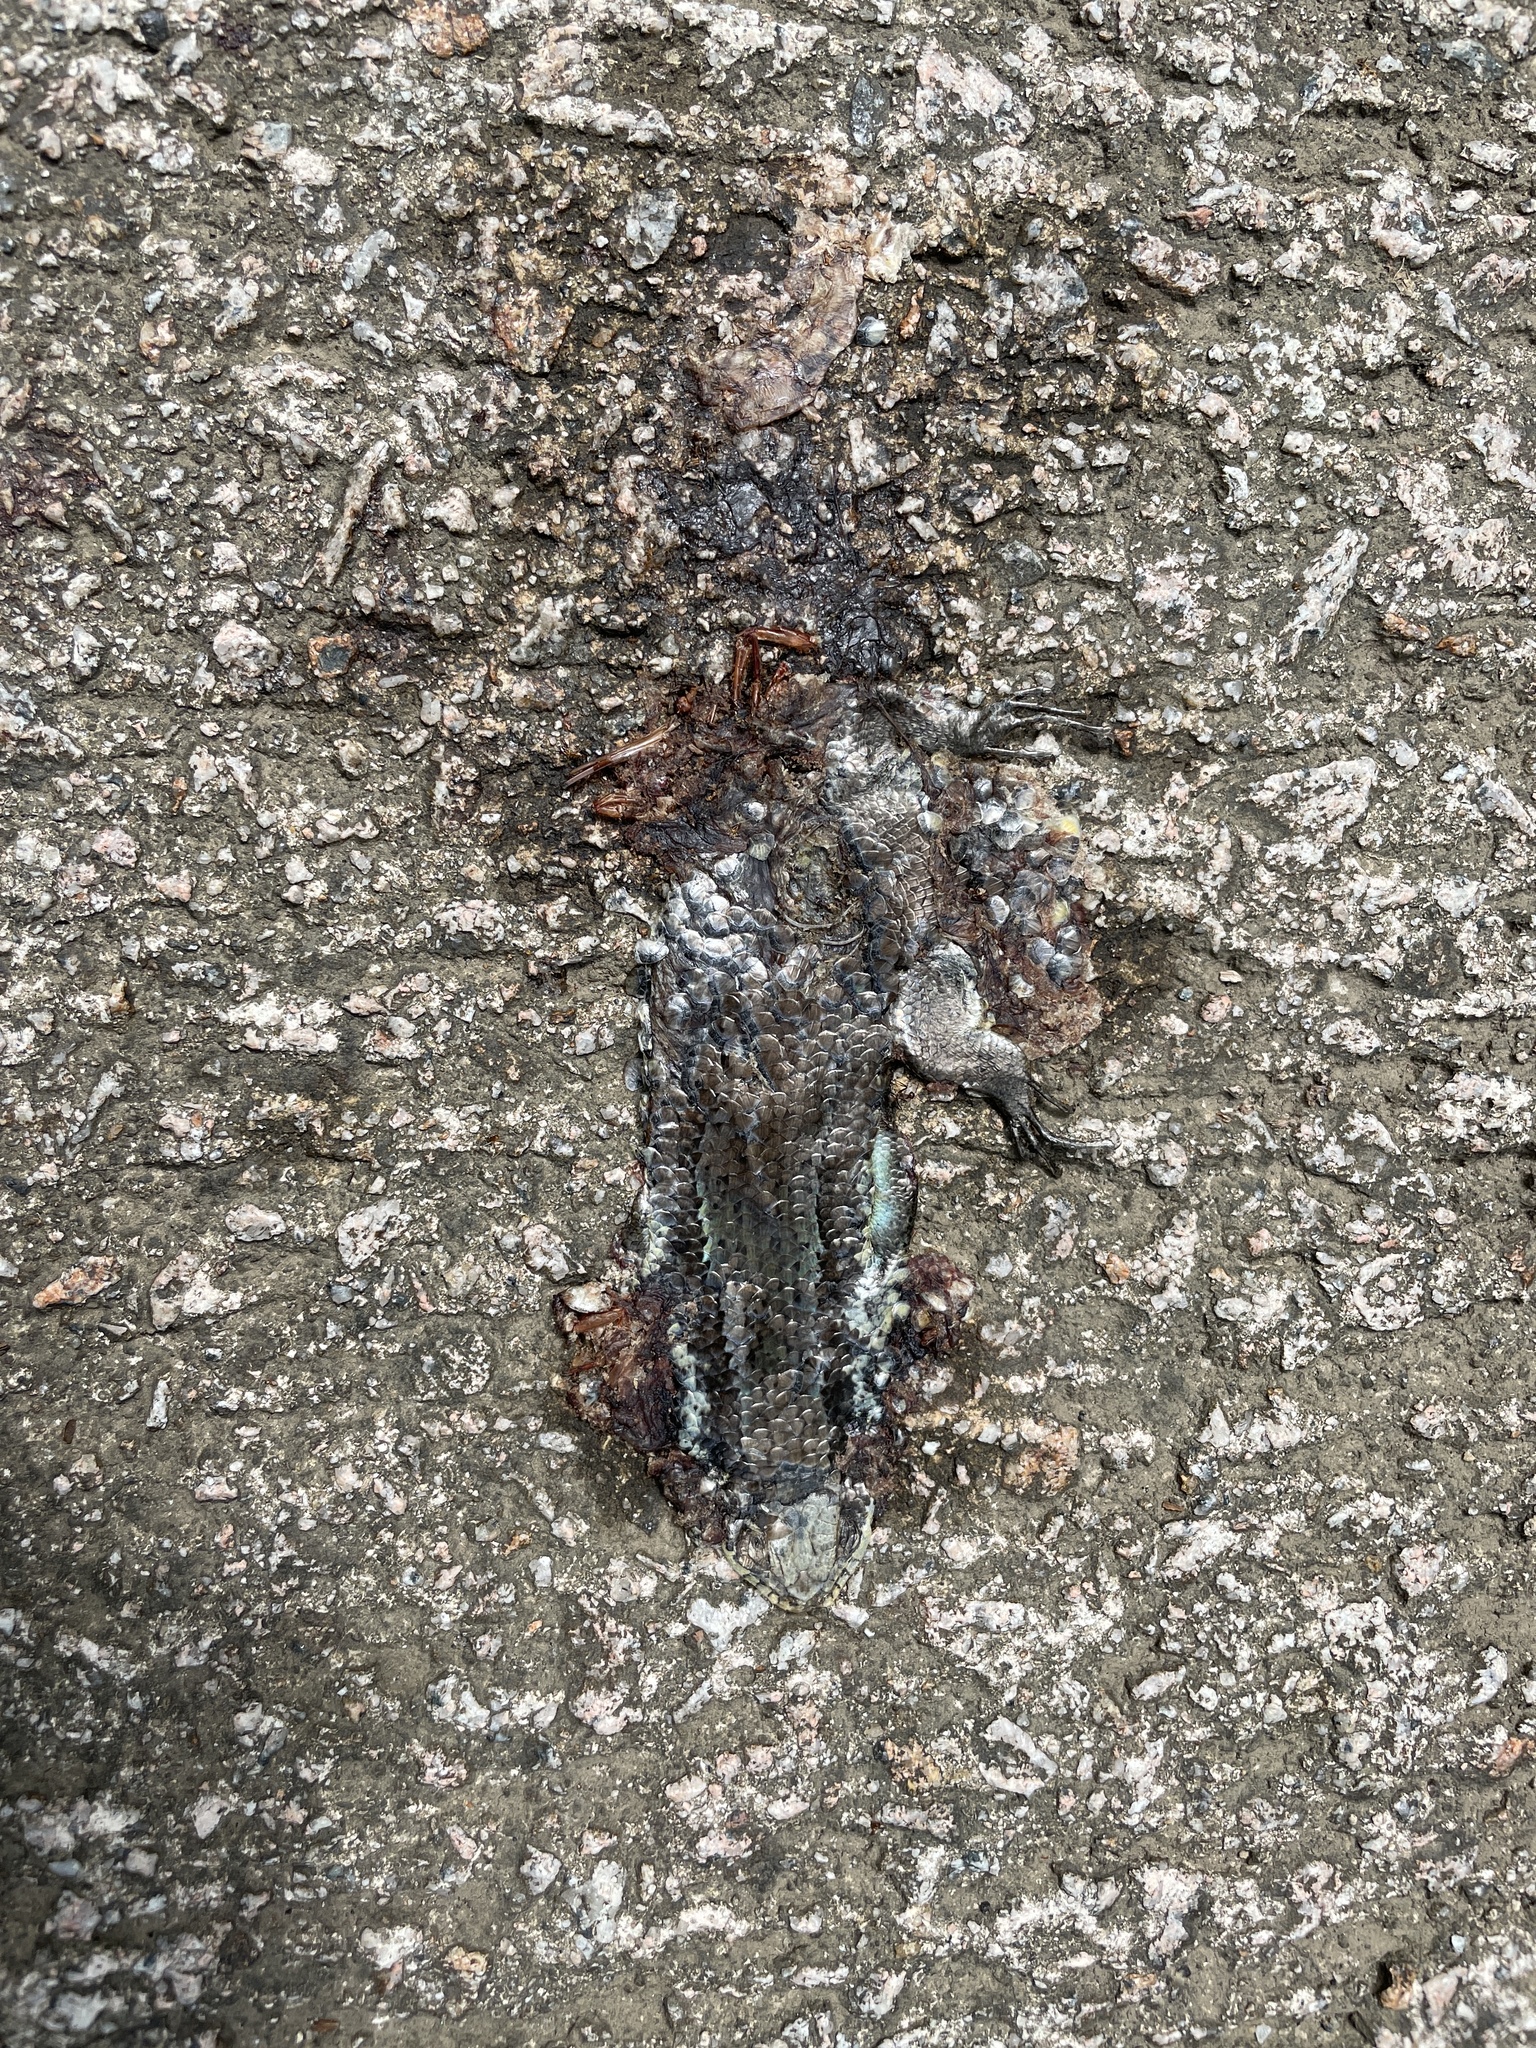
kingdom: Animalia
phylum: Chordata
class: Squamata
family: Scincidae
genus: Eutropis
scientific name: Eutropis longicaudata
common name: Long-tailed sun skink
